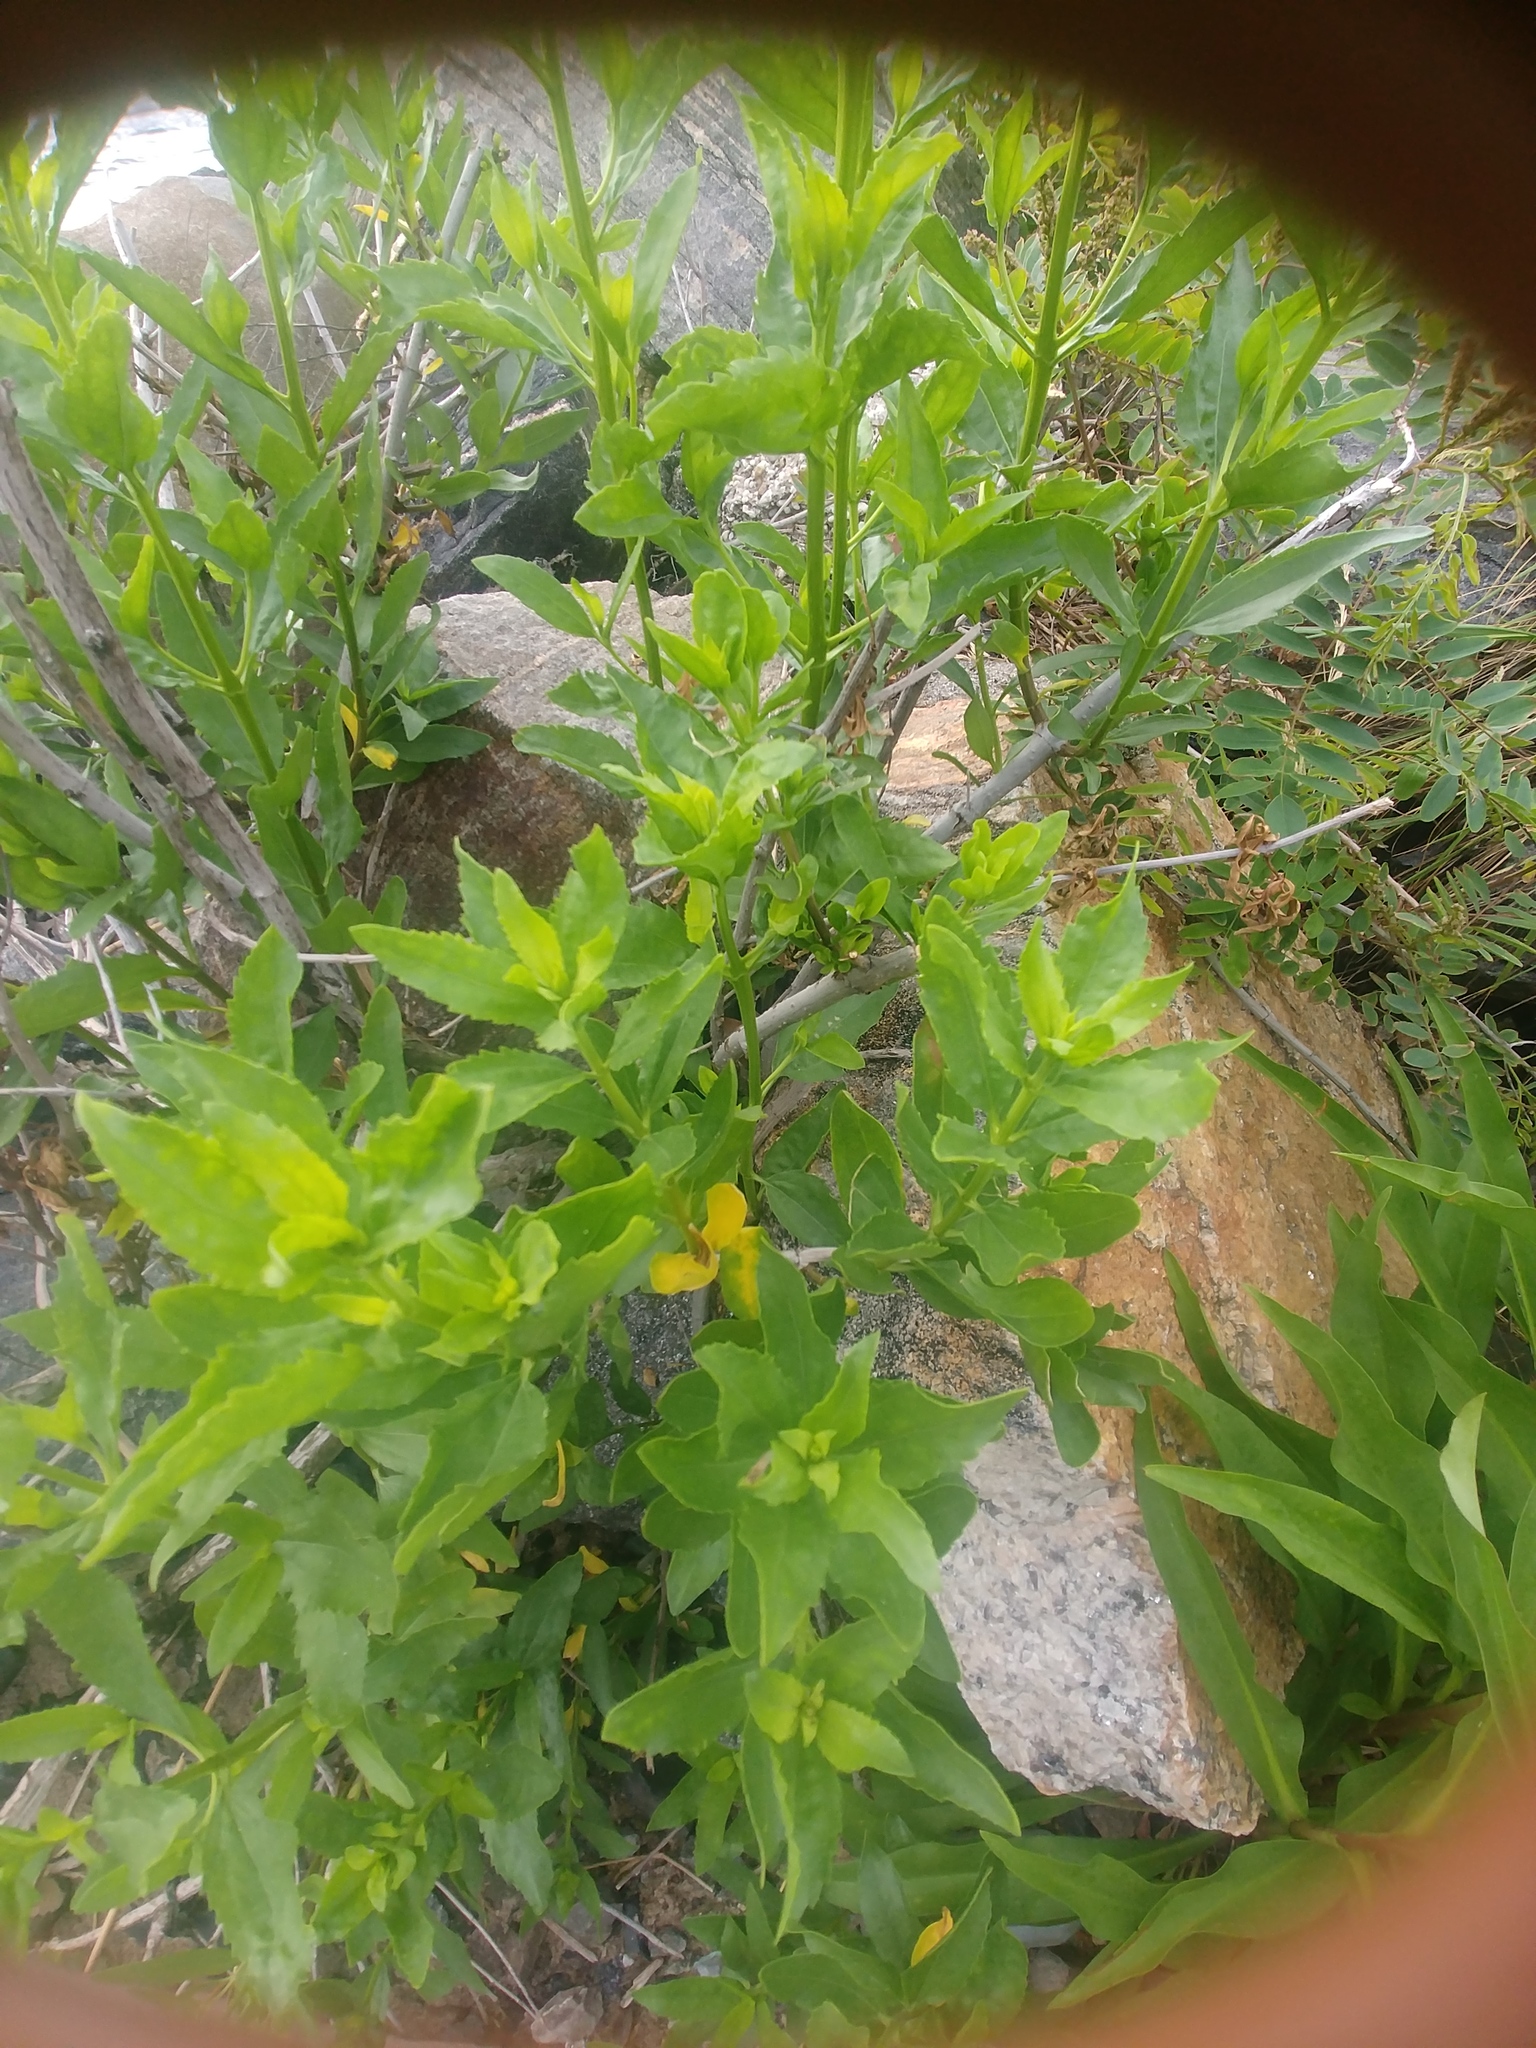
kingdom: Plantae
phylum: Tracheophyta
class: Magnoliopsida
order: Asterales
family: Asteraceae
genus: Iva
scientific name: Iva frutescens
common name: Big-leaved marsh-elder
